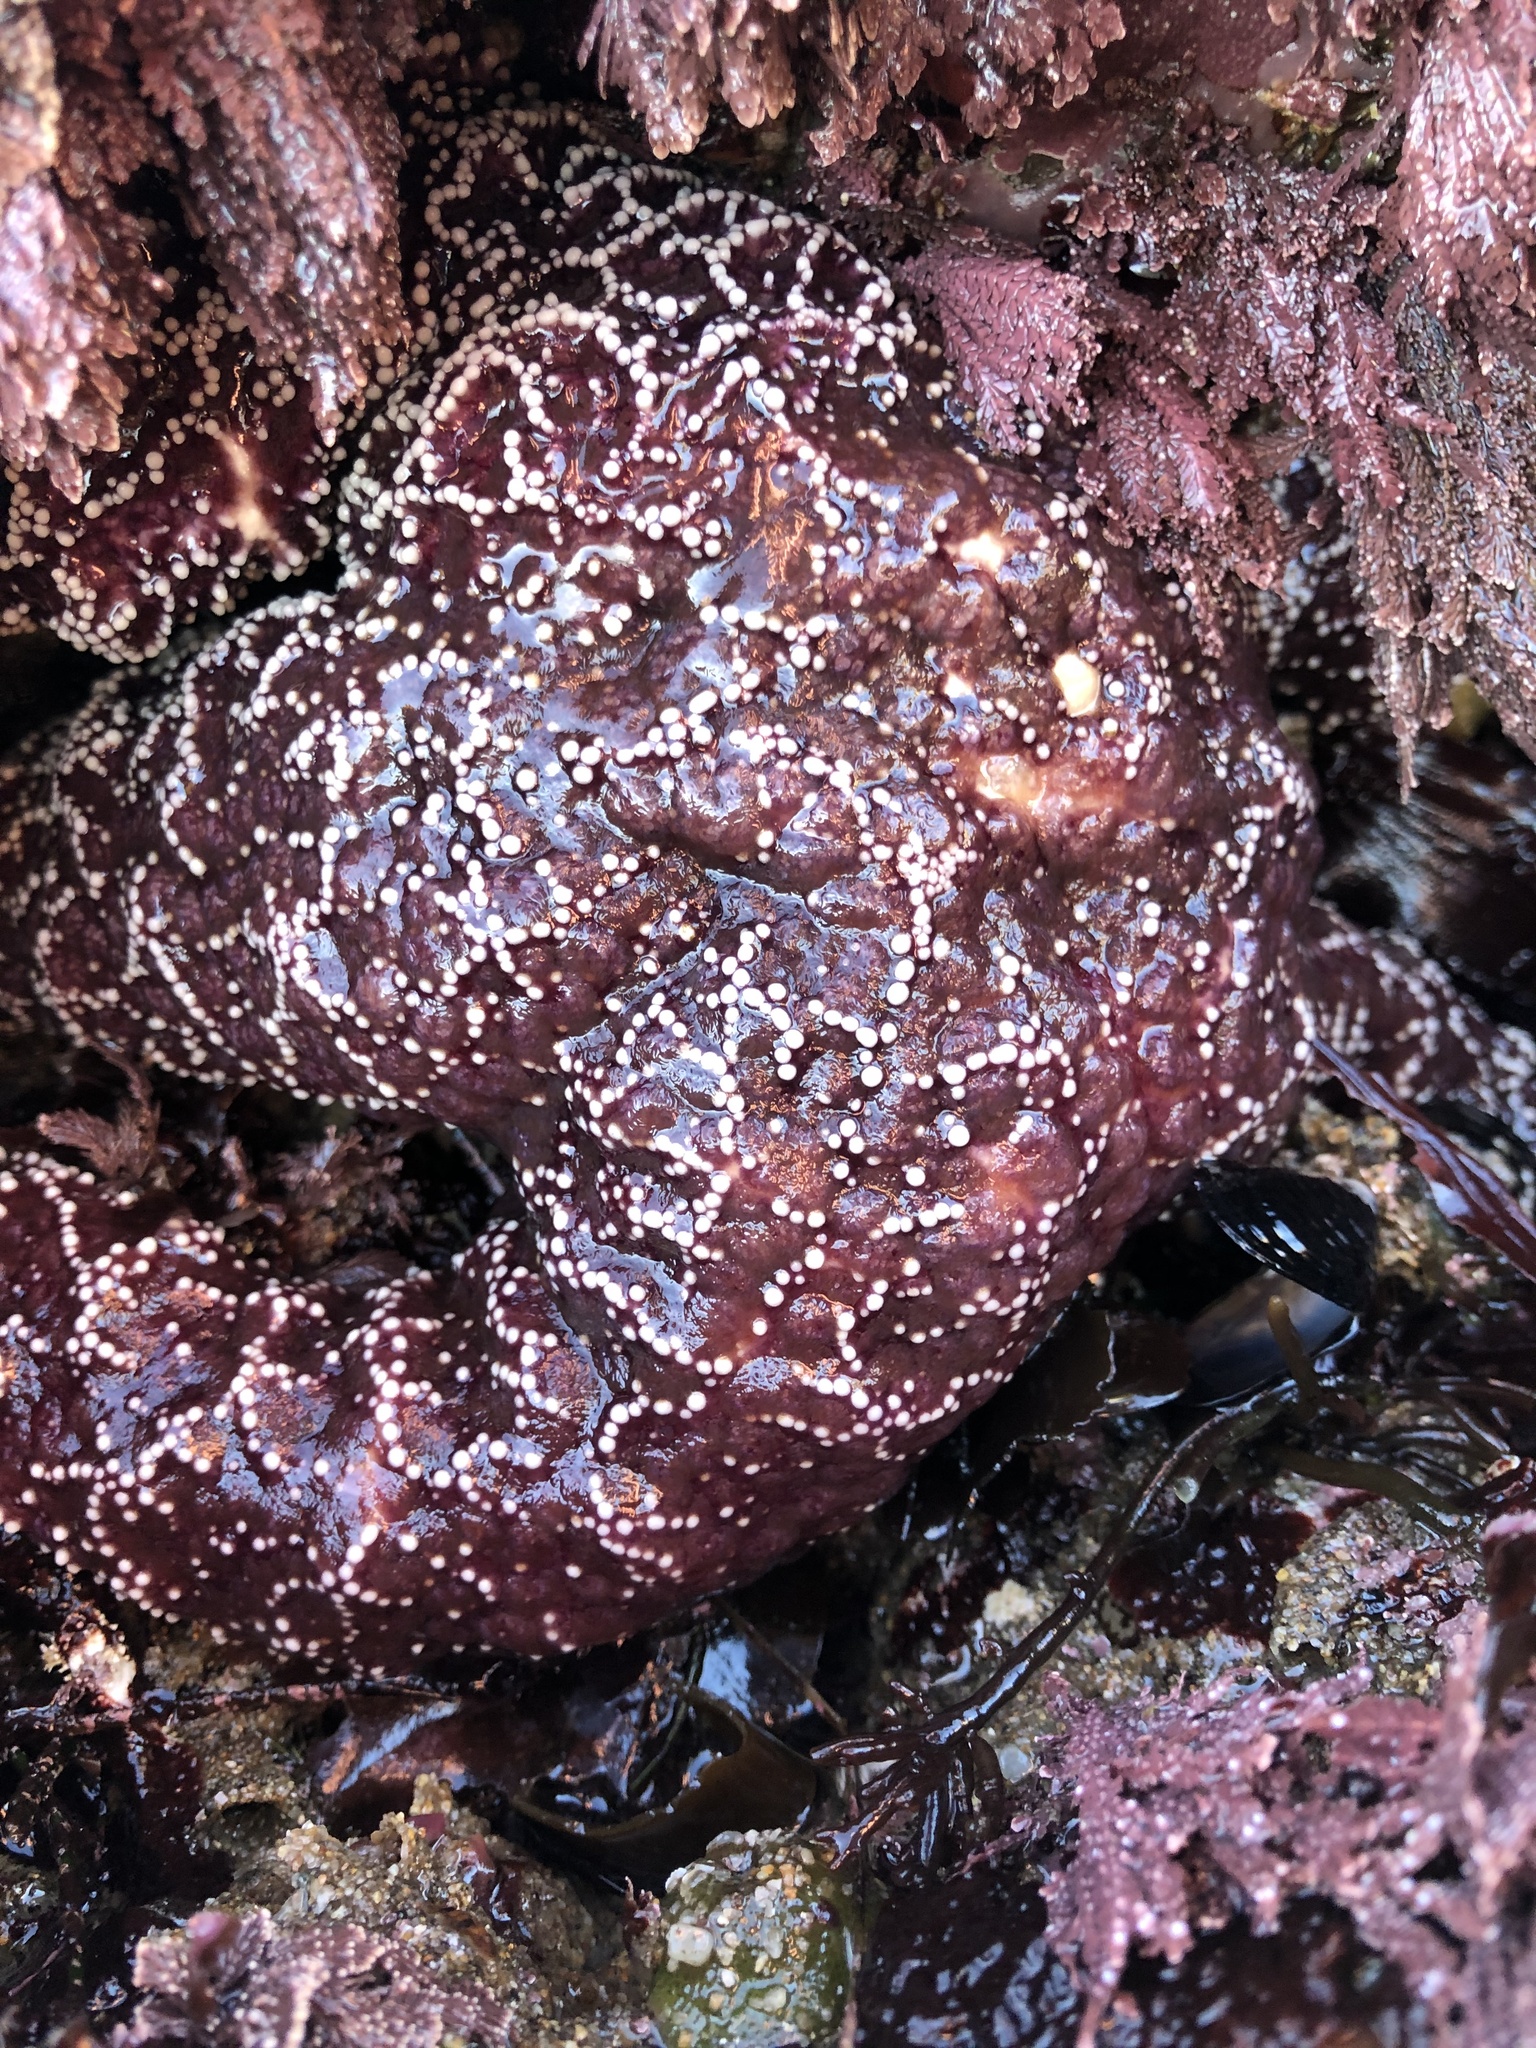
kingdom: Animalia
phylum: Echinodermata
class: Asteroidea
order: Forcipulatida
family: Asteriidae
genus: Pisaster
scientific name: Pisaster ochraceus
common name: Ochre stars
